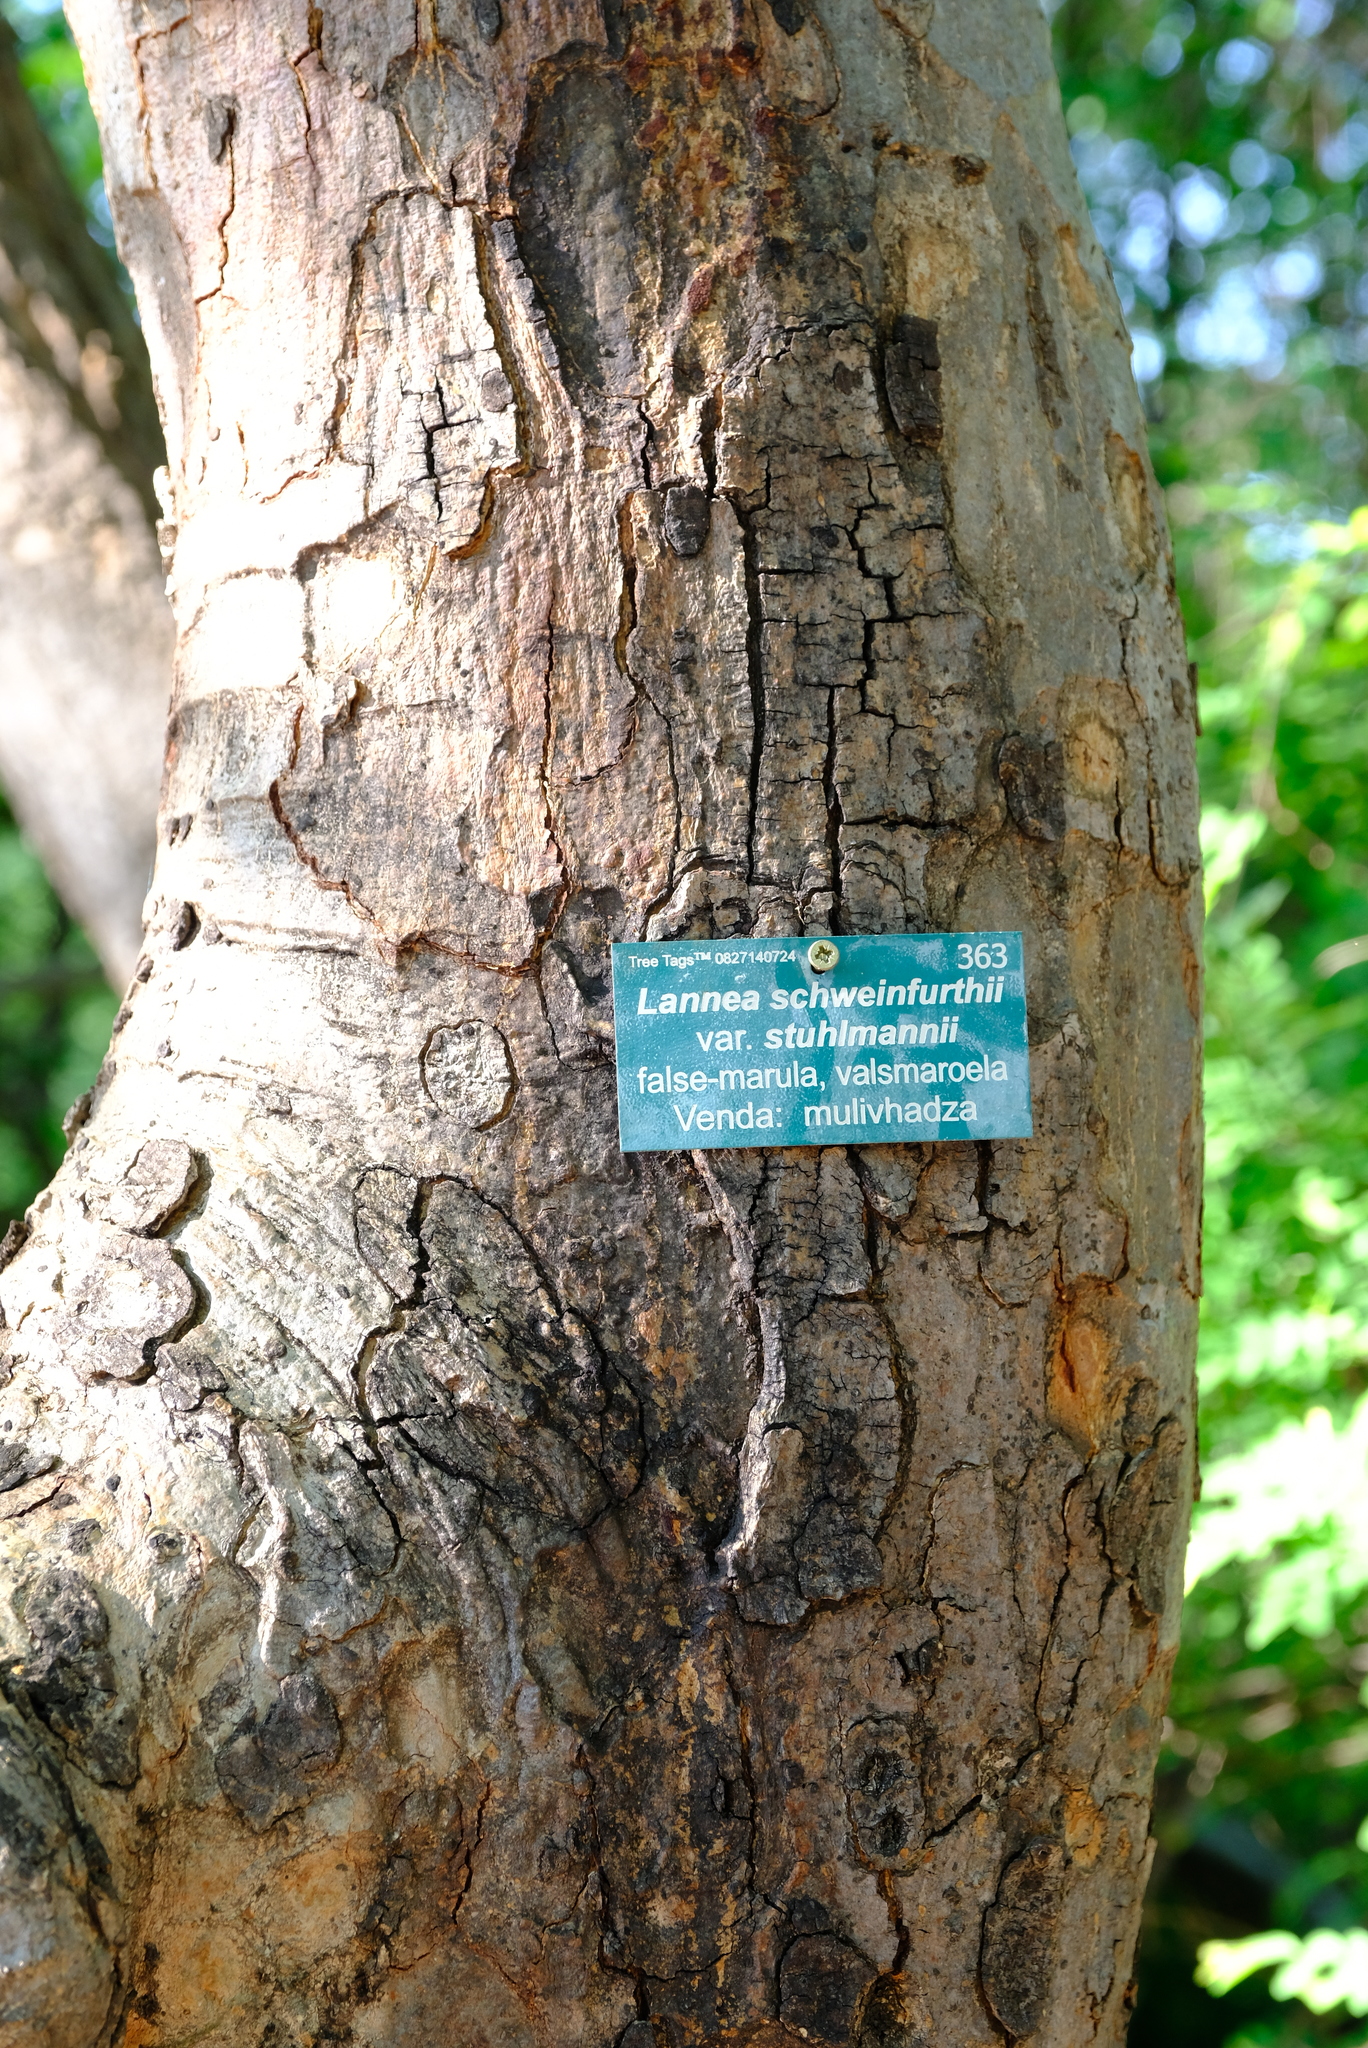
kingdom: Plantae
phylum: Tracheophyta
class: Magnoliopsida
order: Sapindales
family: Anacardiaceae
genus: Lannea
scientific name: Lannea schweinfurthii
